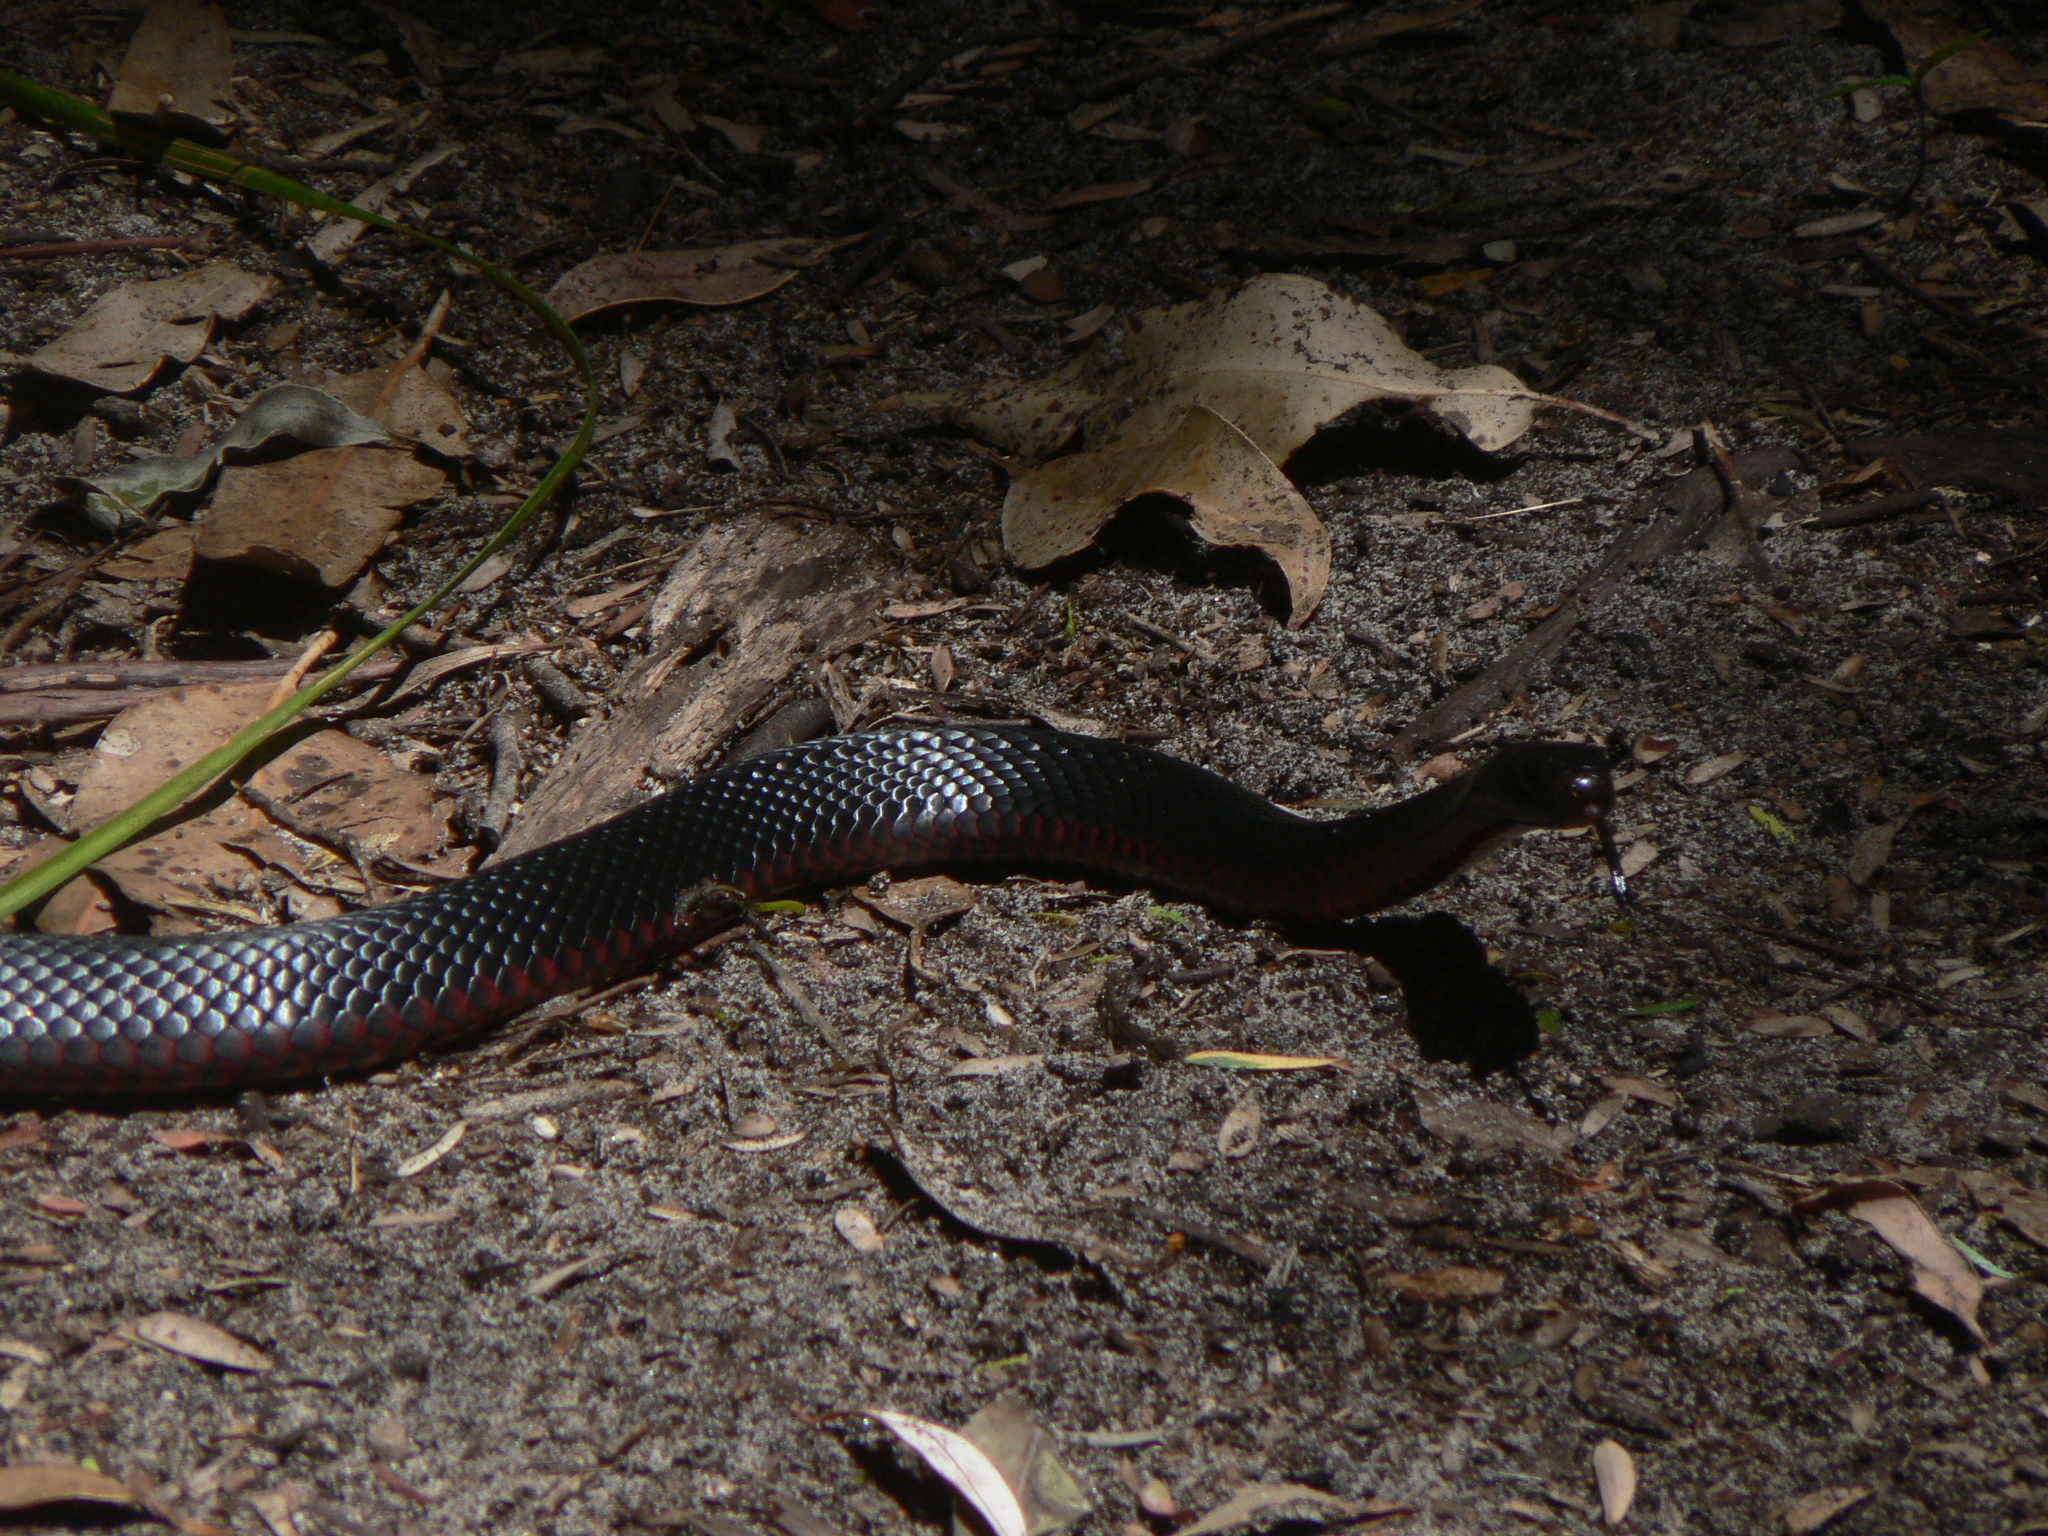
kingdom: Animalia
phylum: Chordata
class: Squamata
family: Elapidae
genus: Pseudechis
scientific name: Pseudechis porphyriacus
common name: Australian black snake
